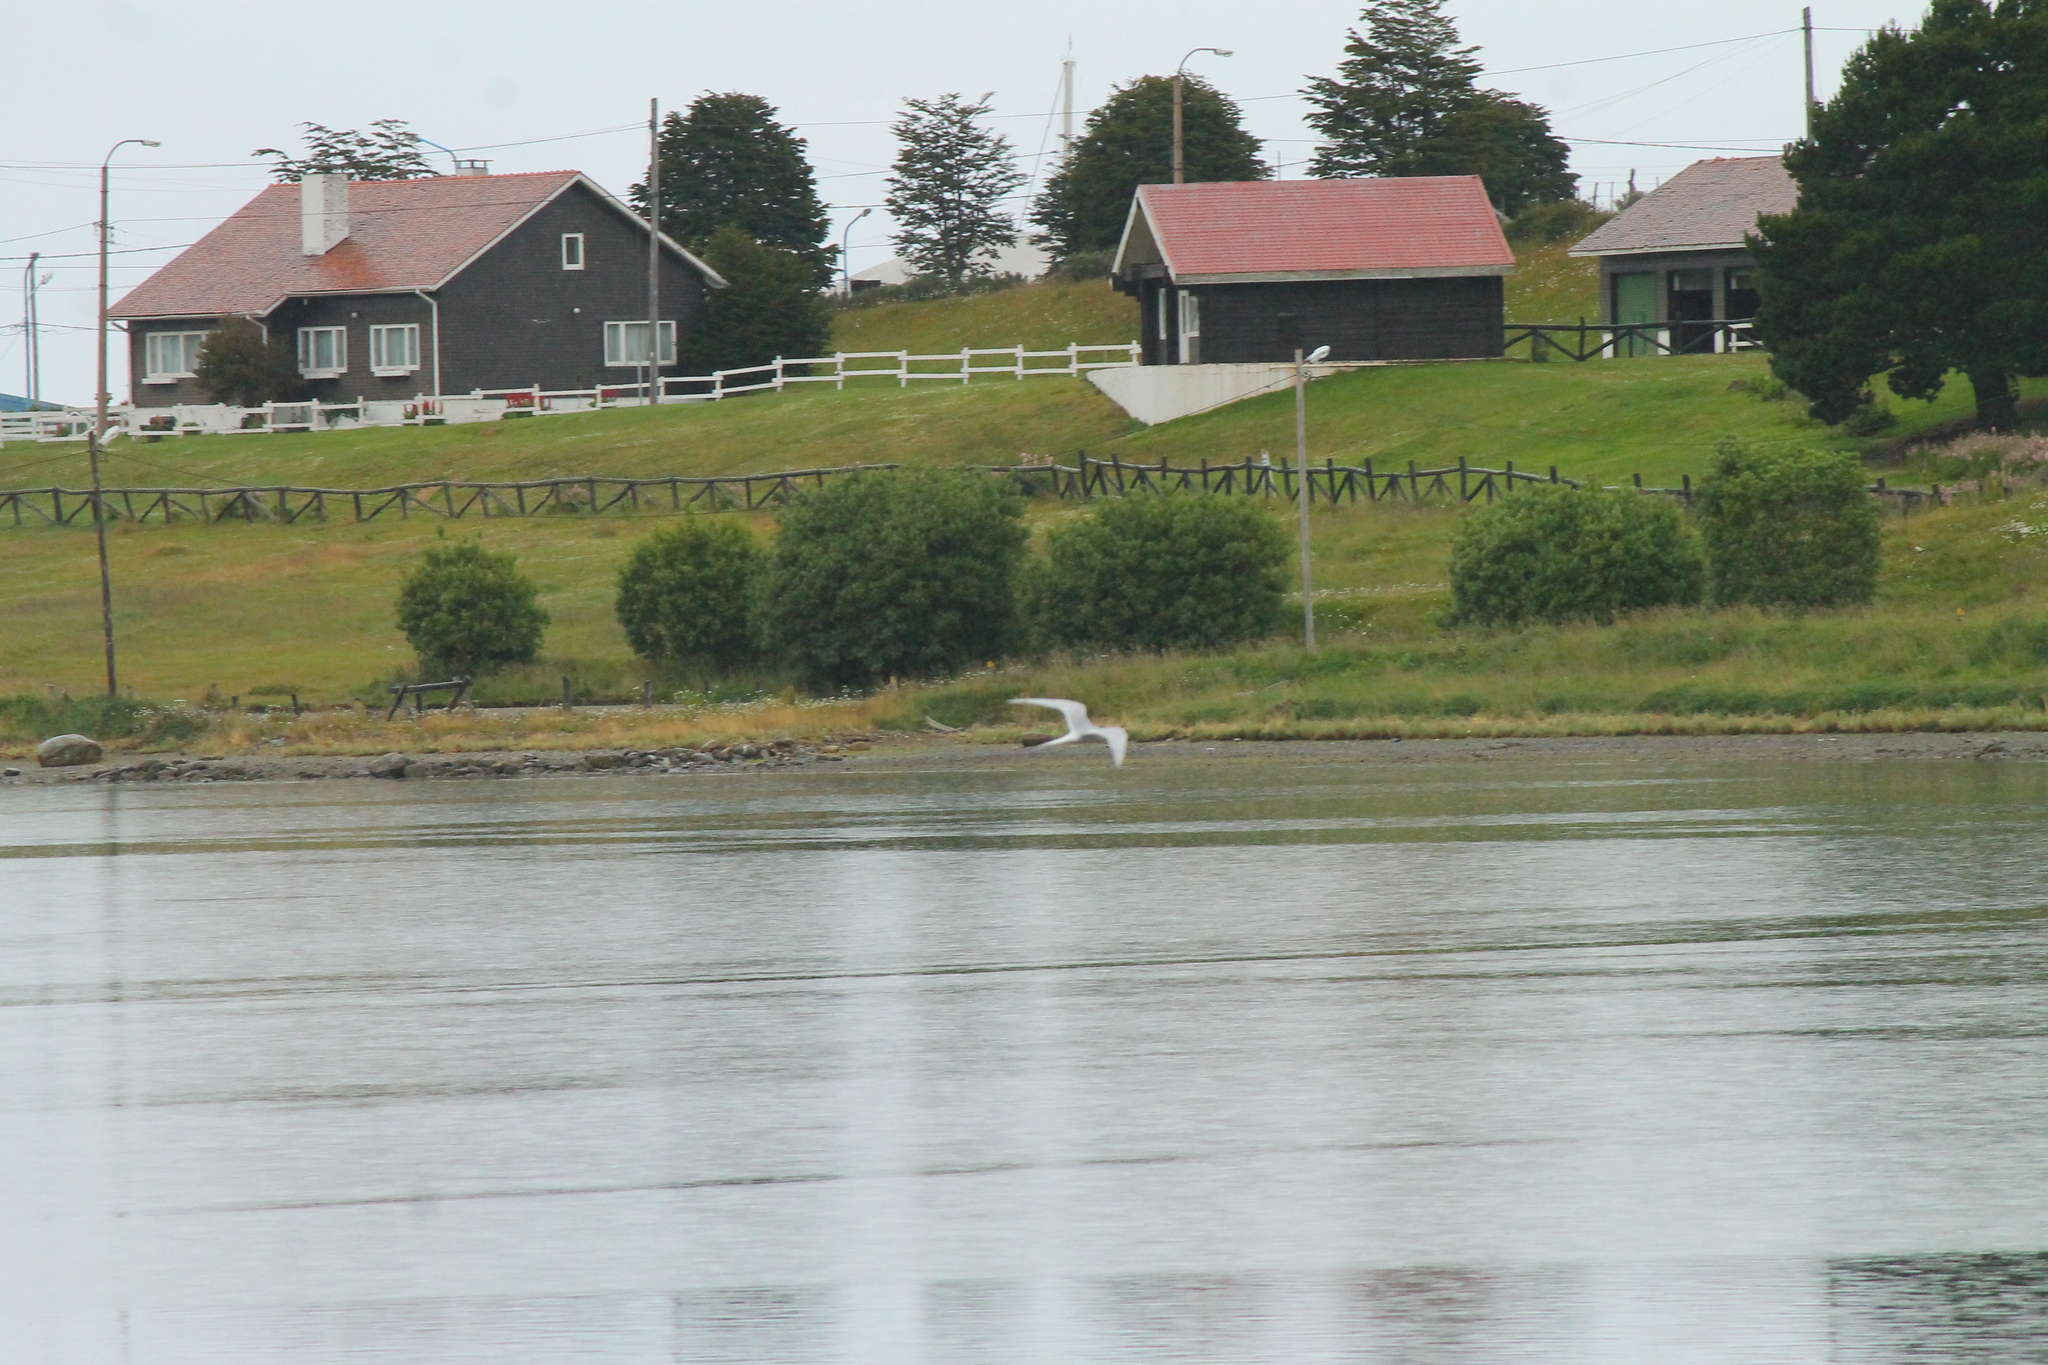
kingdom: Animalia
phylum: Chordata
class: Aves
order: Charadriiformes
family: Laridae
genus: Sterna
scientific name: Sterna hirundinacea
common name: South american tern
